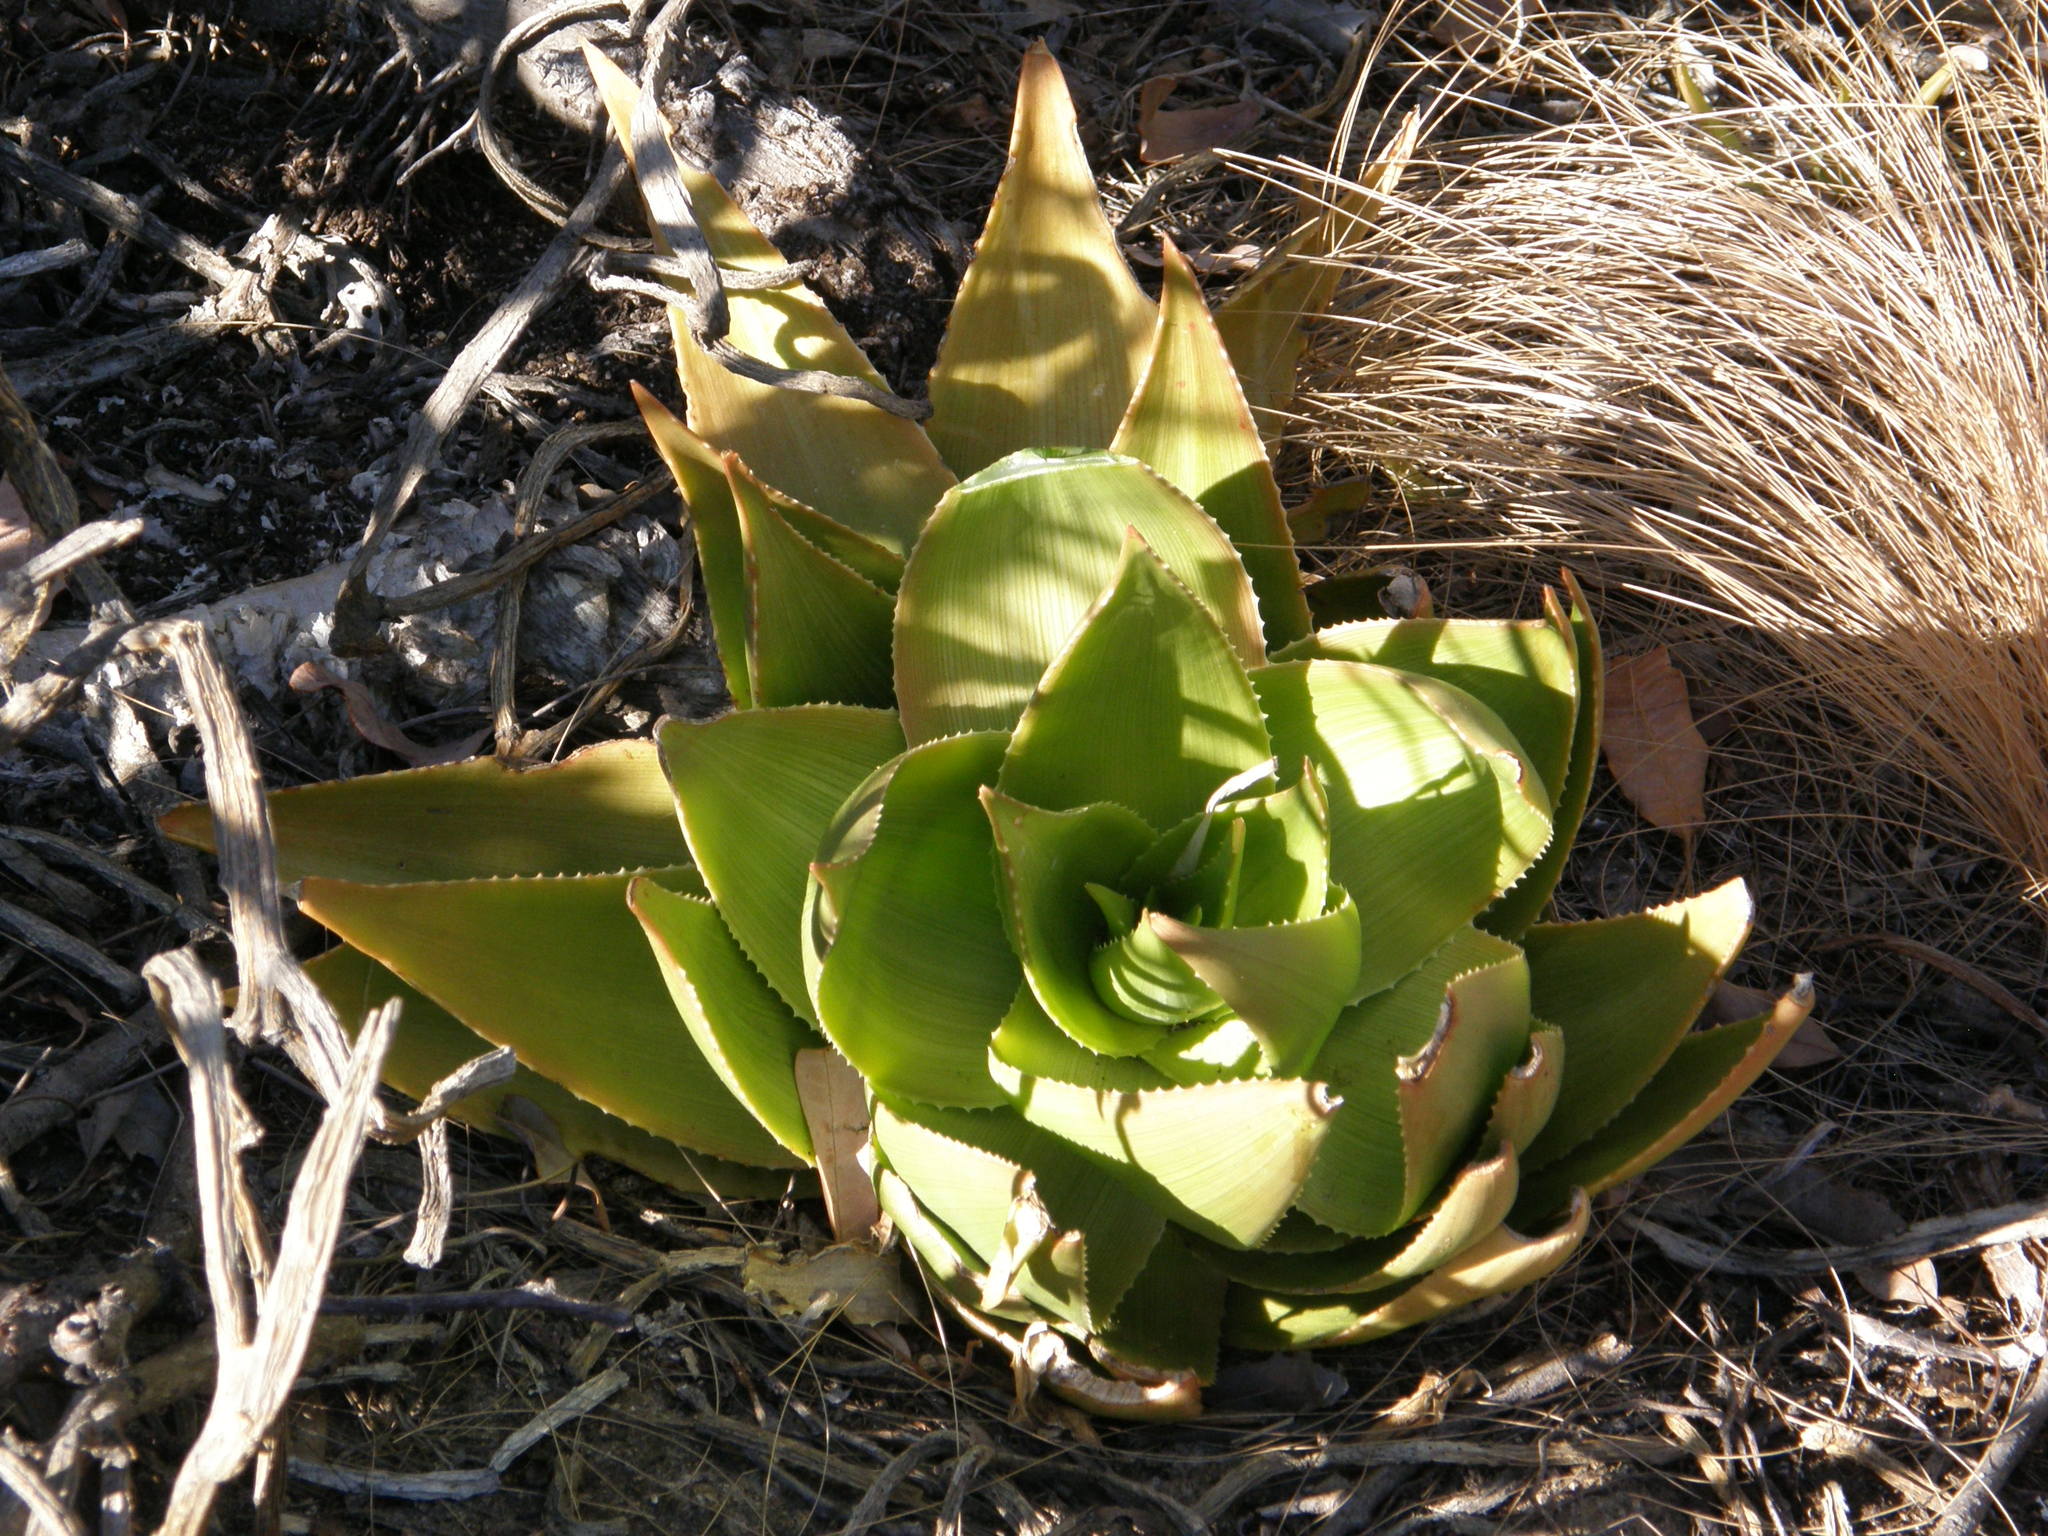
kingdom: Plantae
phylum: Tracheophyta
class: Liliopsida
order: Asparagales
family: Asphodelaceae
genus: Aloe
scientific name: Aloe deltoideodonta
